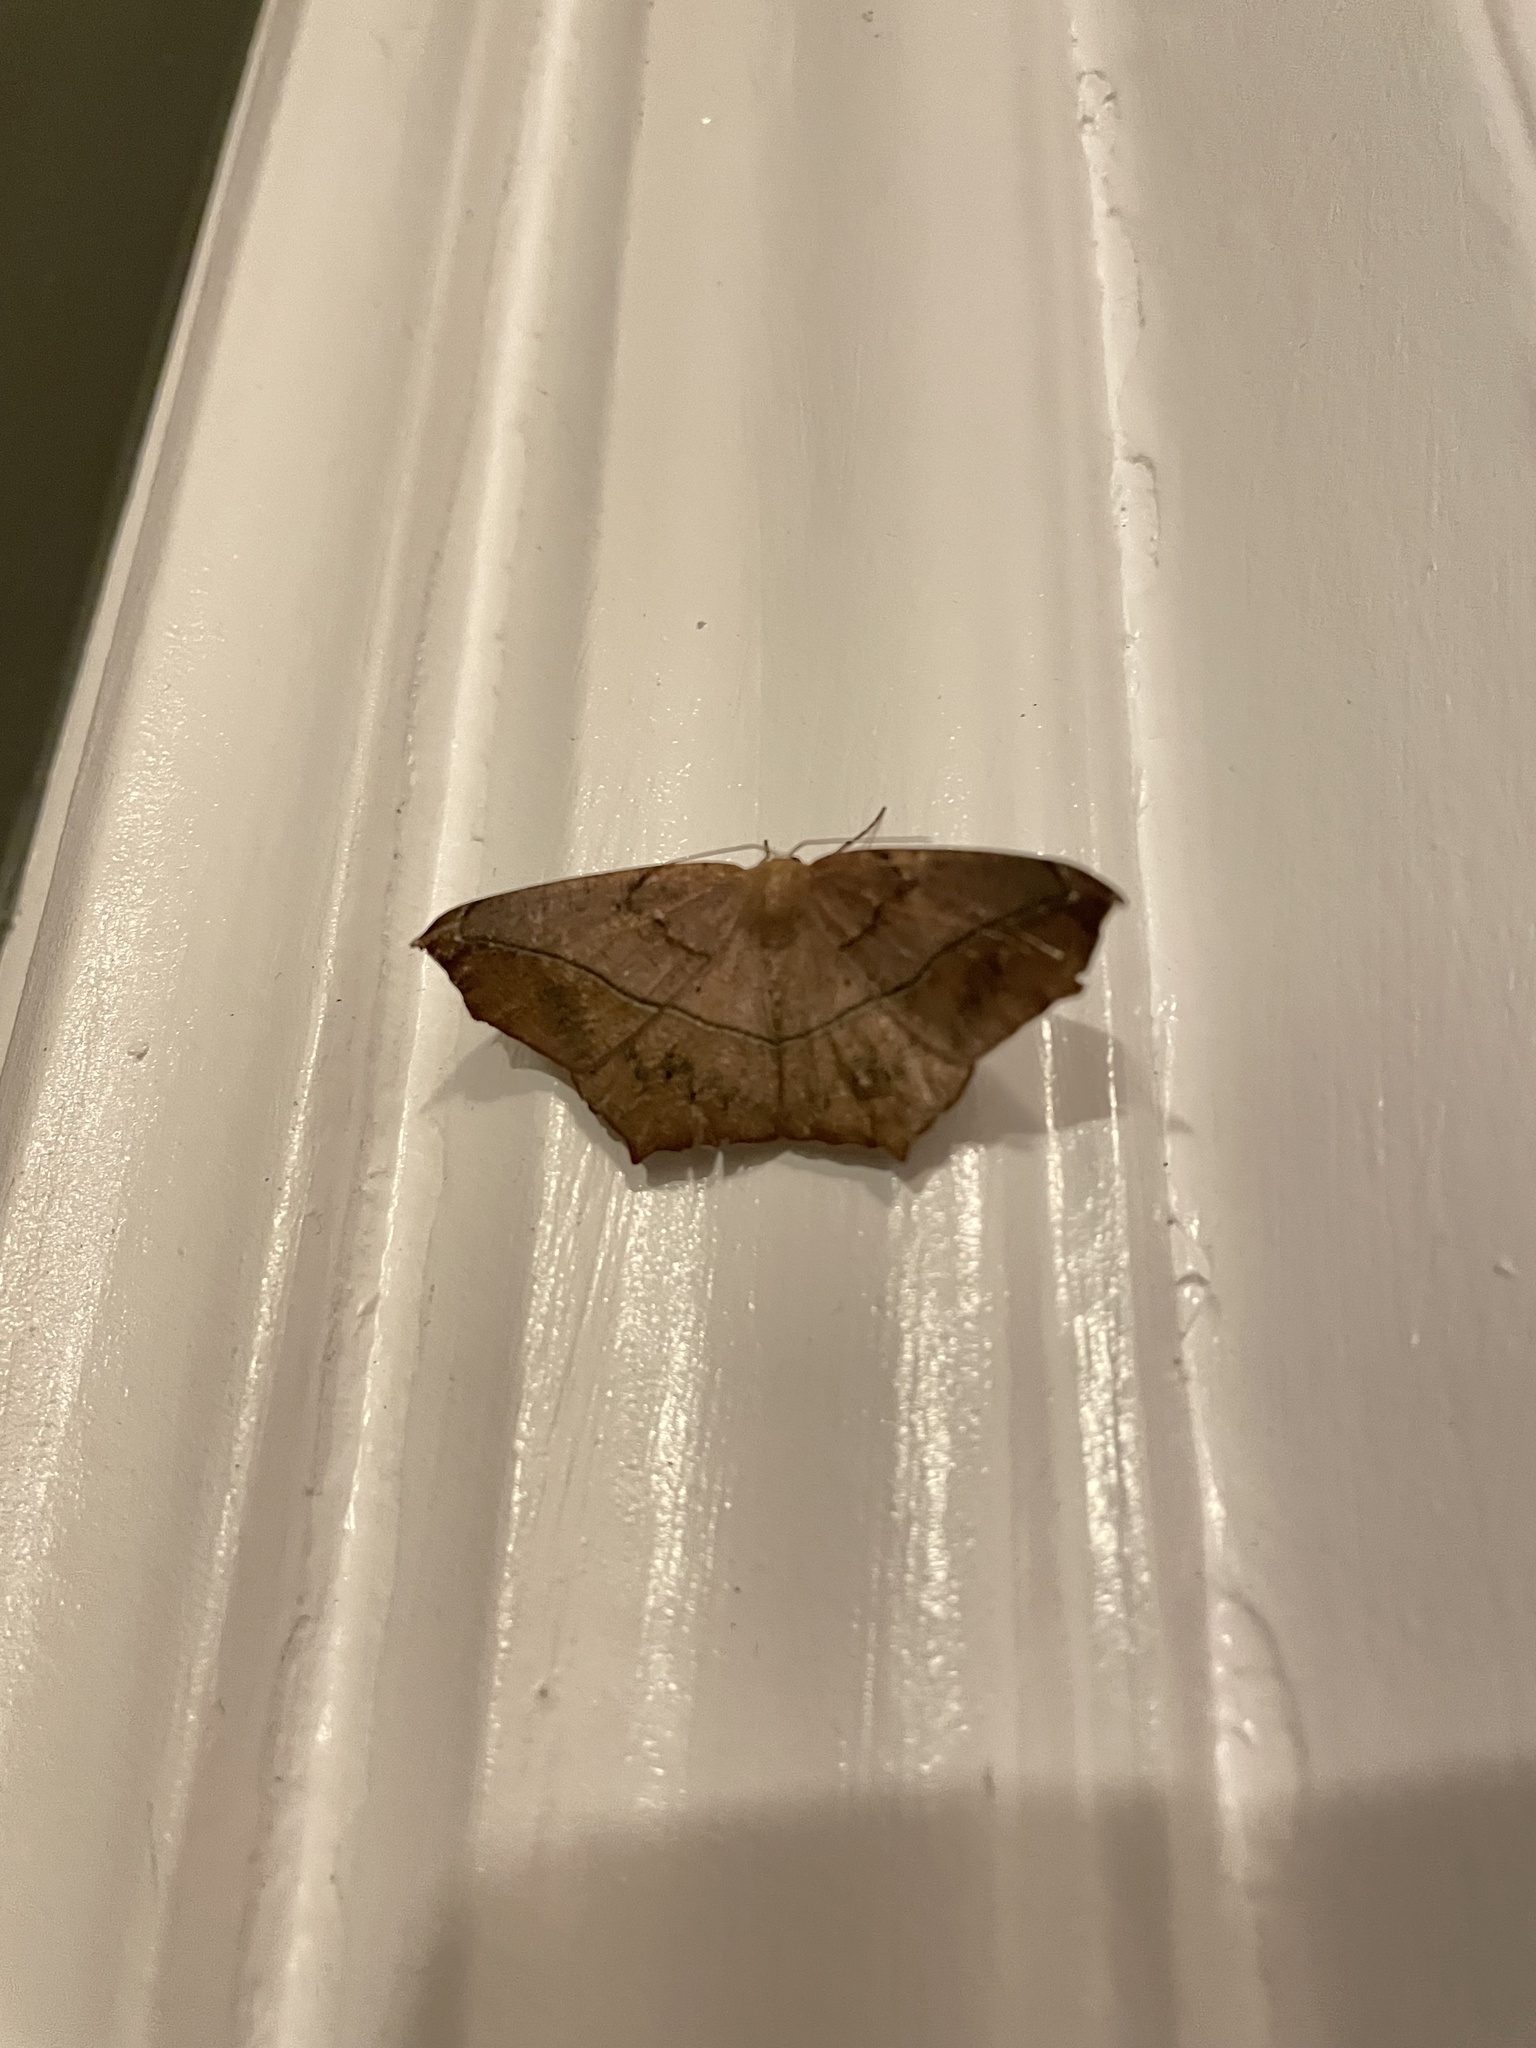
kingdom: Animalia
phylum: Arthropoda
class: Insecta
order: Lepidoptera
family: Geometridae
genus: Prochoerodes
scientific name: Prochoerodes lineola
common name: Large maple spanworm
